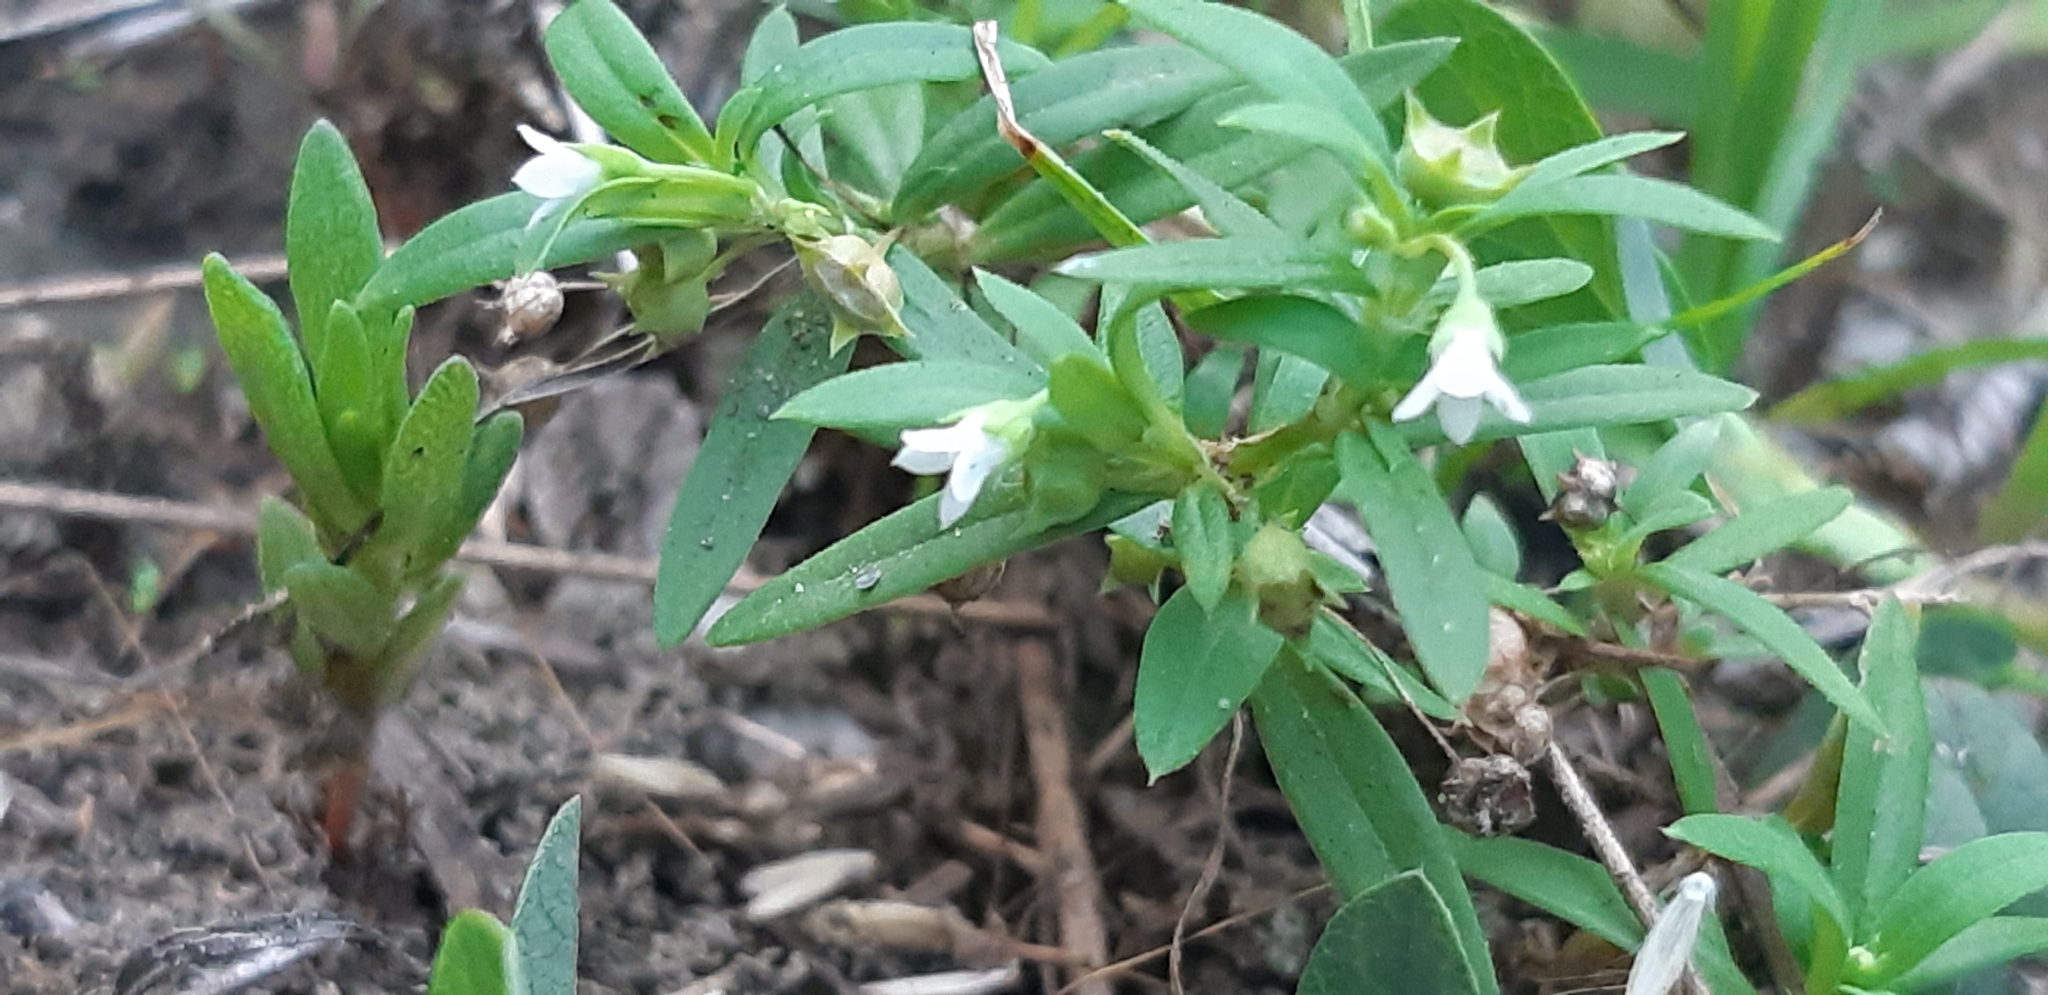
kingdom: Plantae
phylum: Tracheophyta
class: Magnoliopsida
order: Gentianales
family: Rubiaceae
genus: Oldenlandia
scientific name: Oldenlandia corymbosa
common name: Flat-top mille graines
